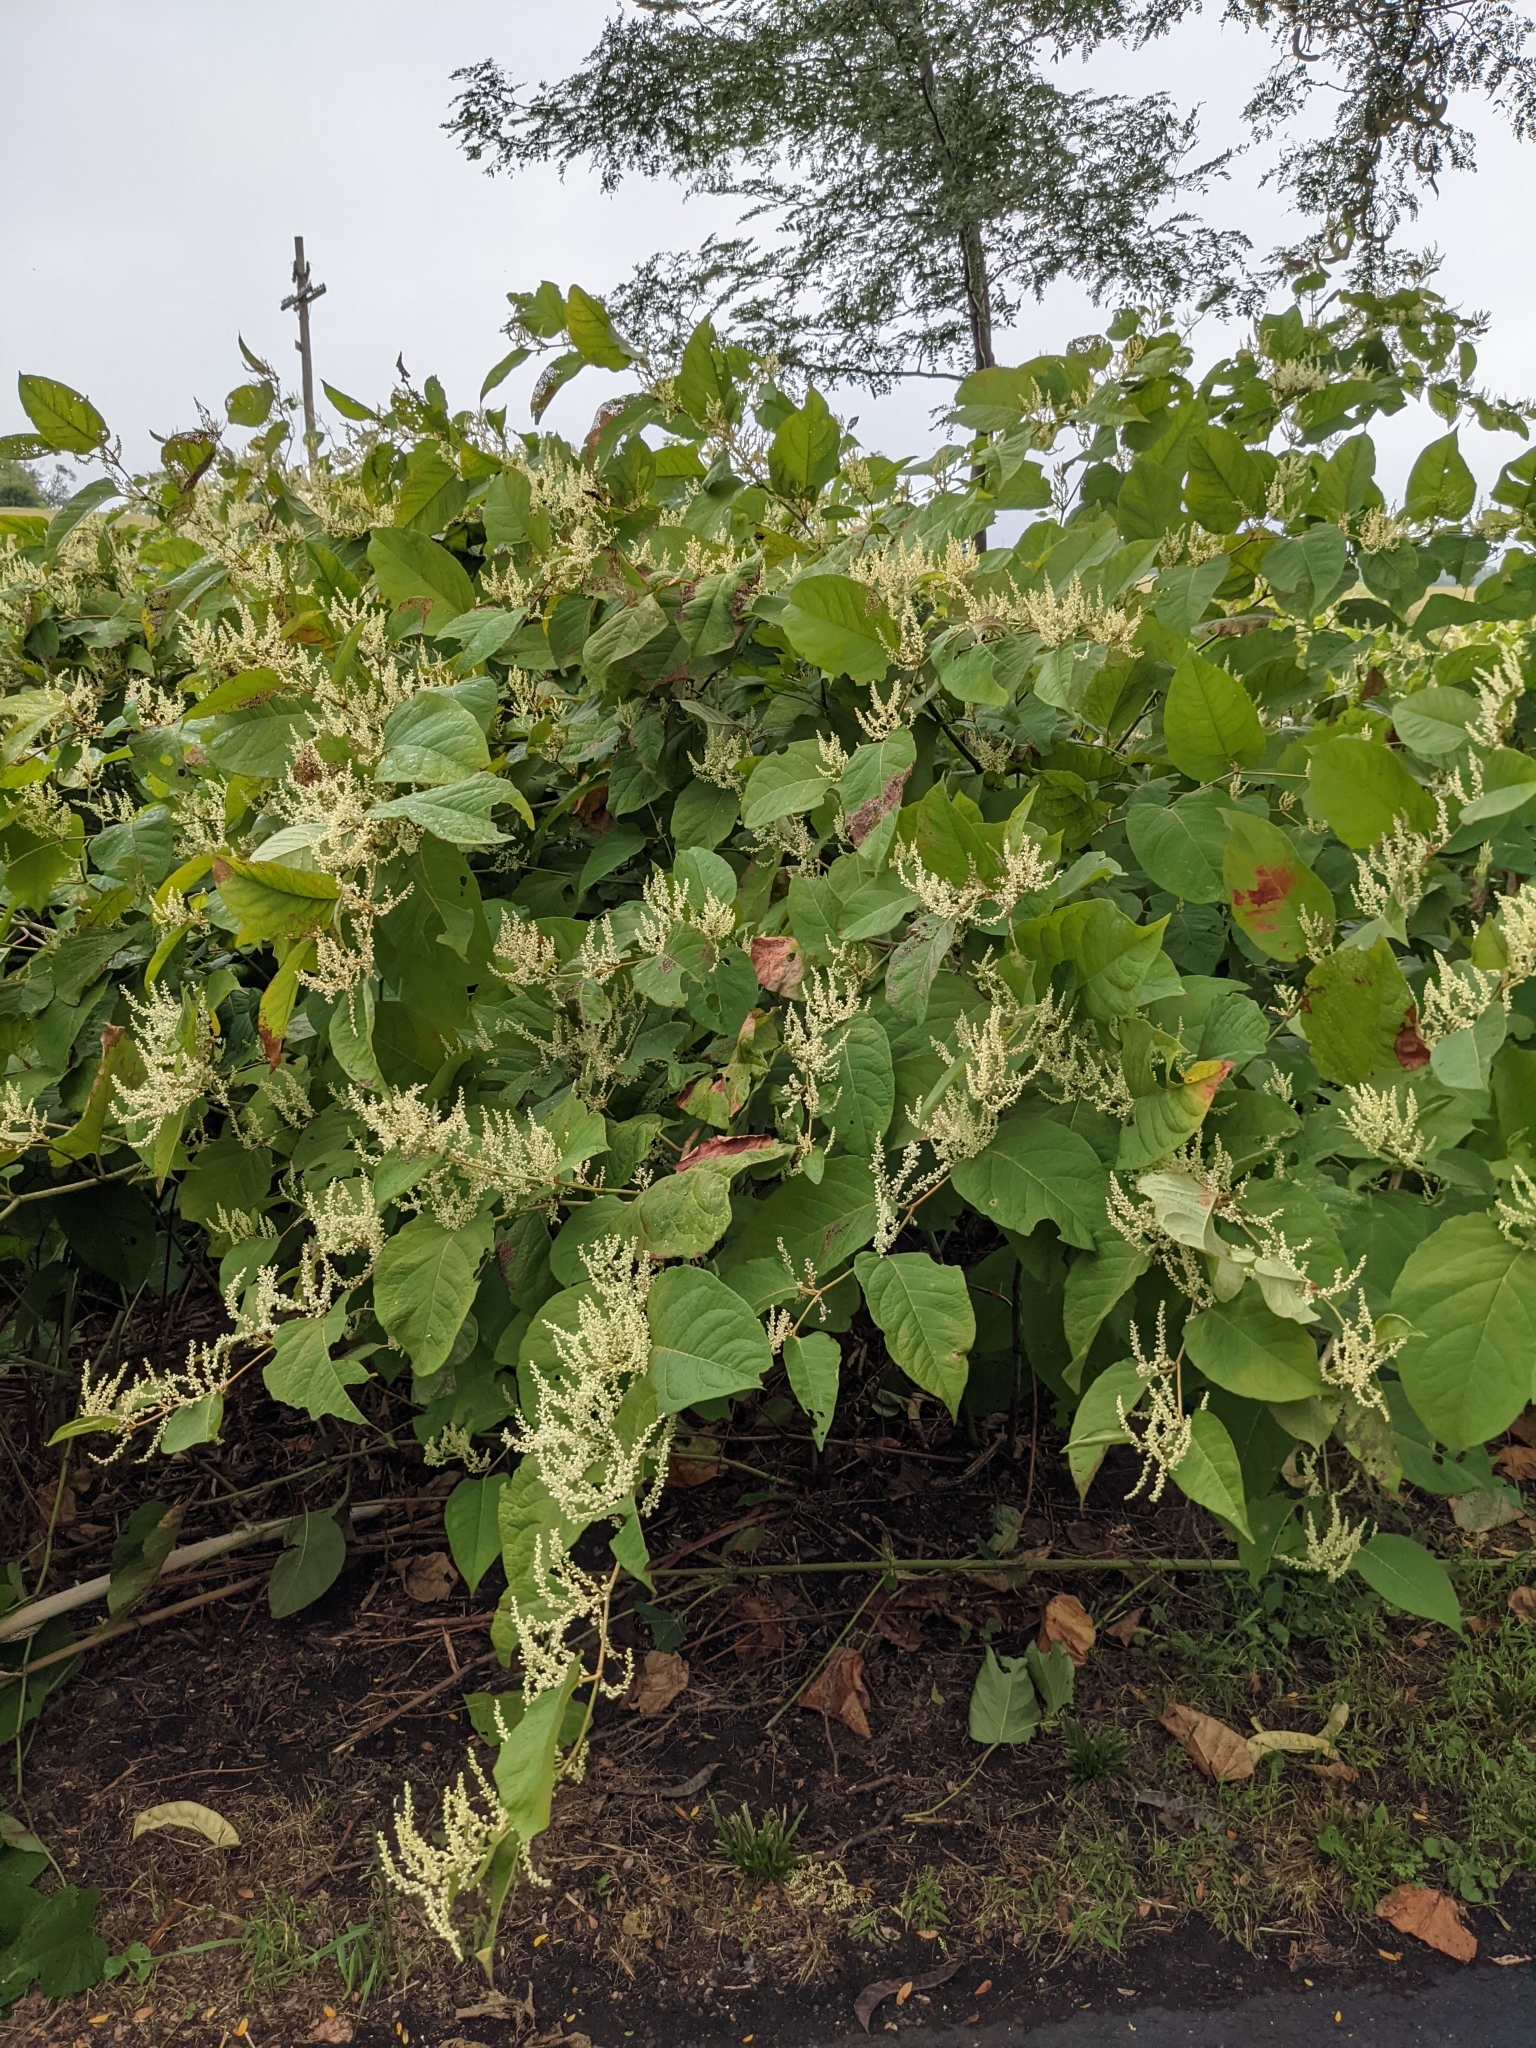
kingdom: Plantae
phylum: Tracheophyta
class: Magnoliopsida
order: Caryophyllales
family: Polygonaceae
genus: Reynoutria
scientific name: Reynoutria japonica
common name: Japanese knotweed
